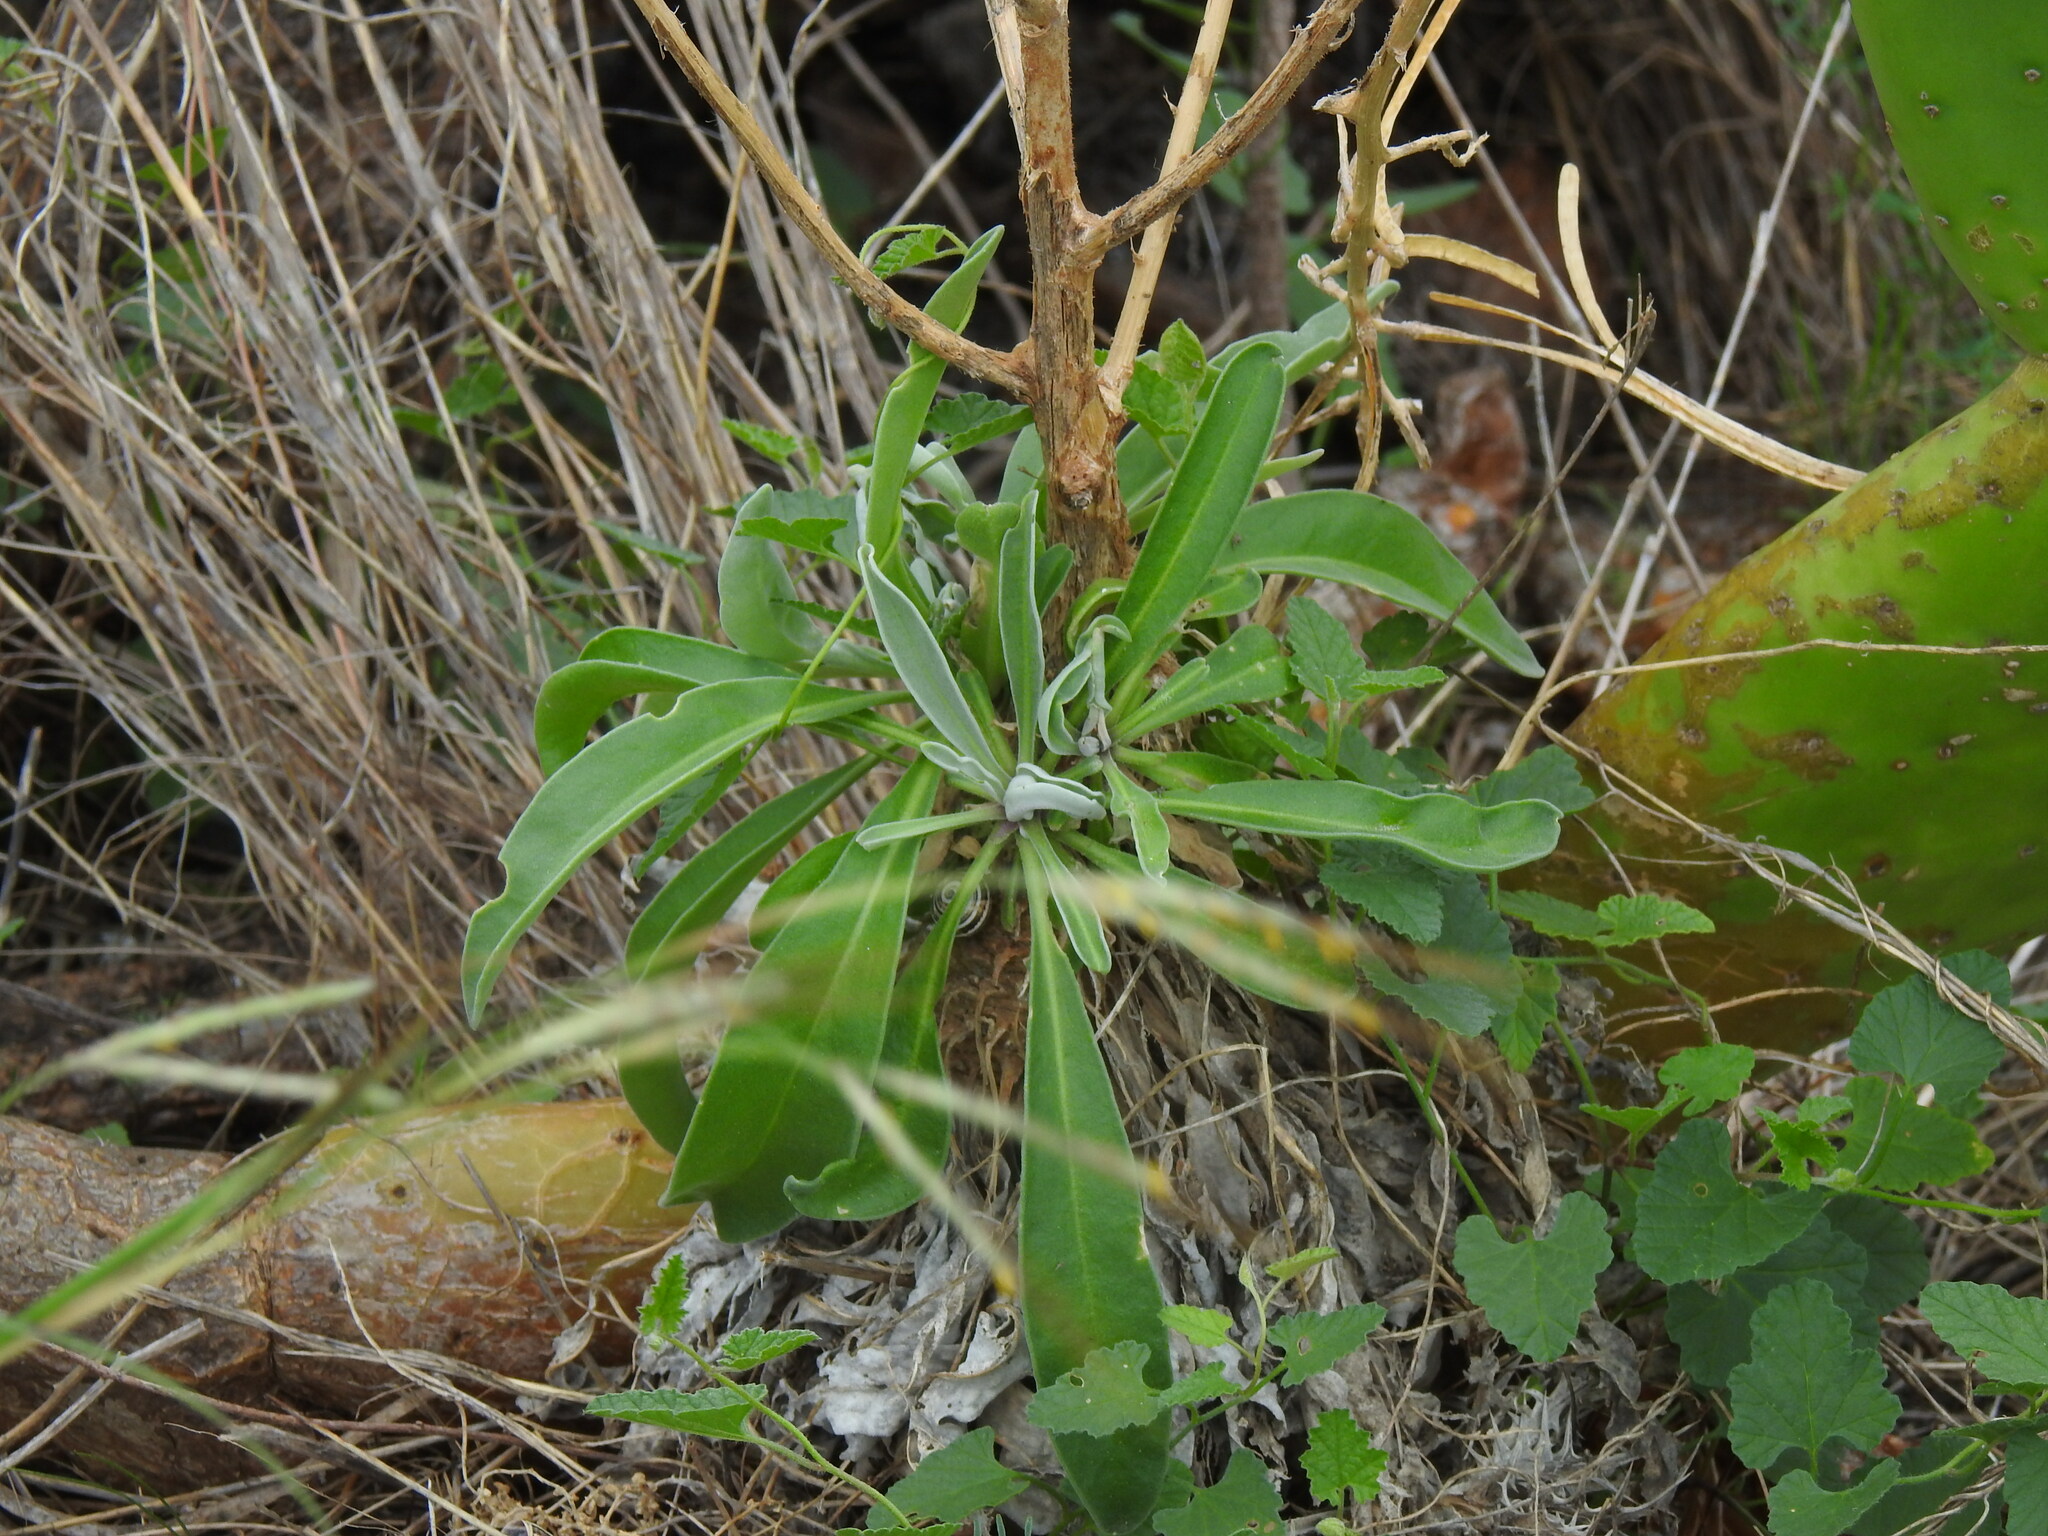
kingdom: Plantae
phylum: Tracheophyta
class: Magnoliopsida
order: Brassicales
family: Brassicaceae
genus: Matthiola
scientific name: Matthiola maderensis
